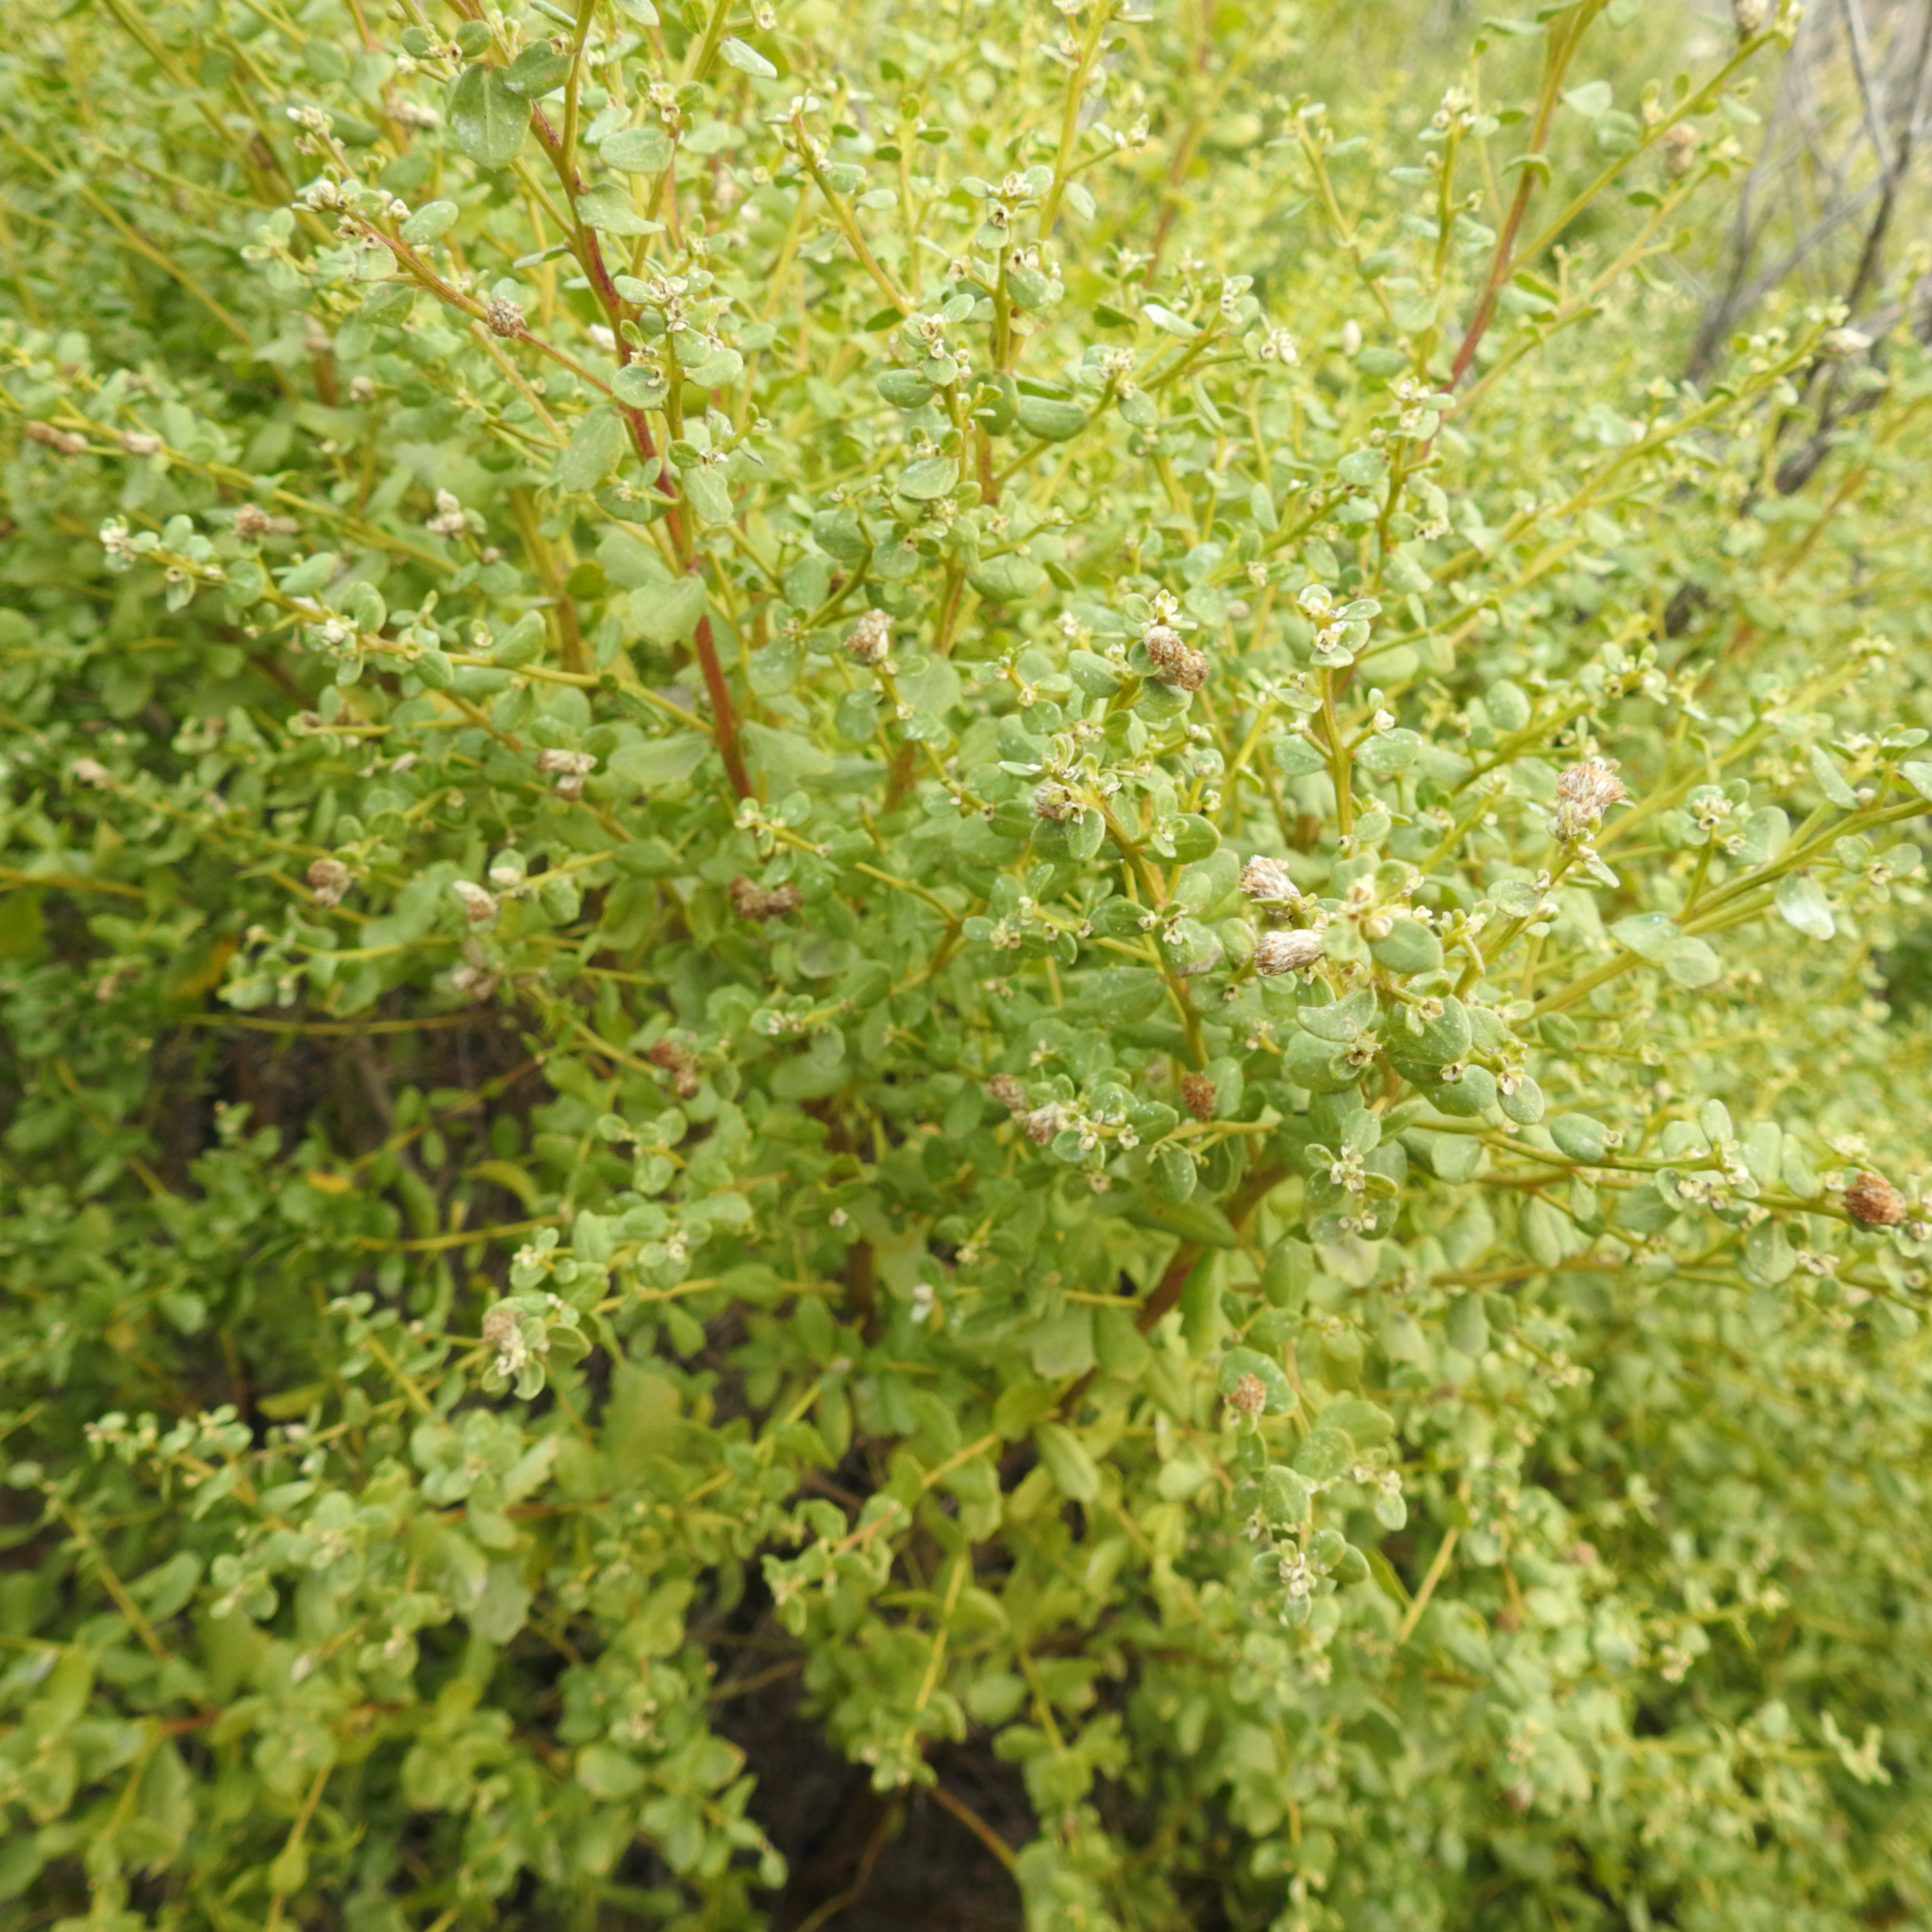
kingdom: Plantae
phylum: Tracheophyta
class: Magnoliopsida
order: Asterales
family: Asteraceae
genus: Baccharis
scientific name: Baccharis pilularis
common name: Coyotebrush
